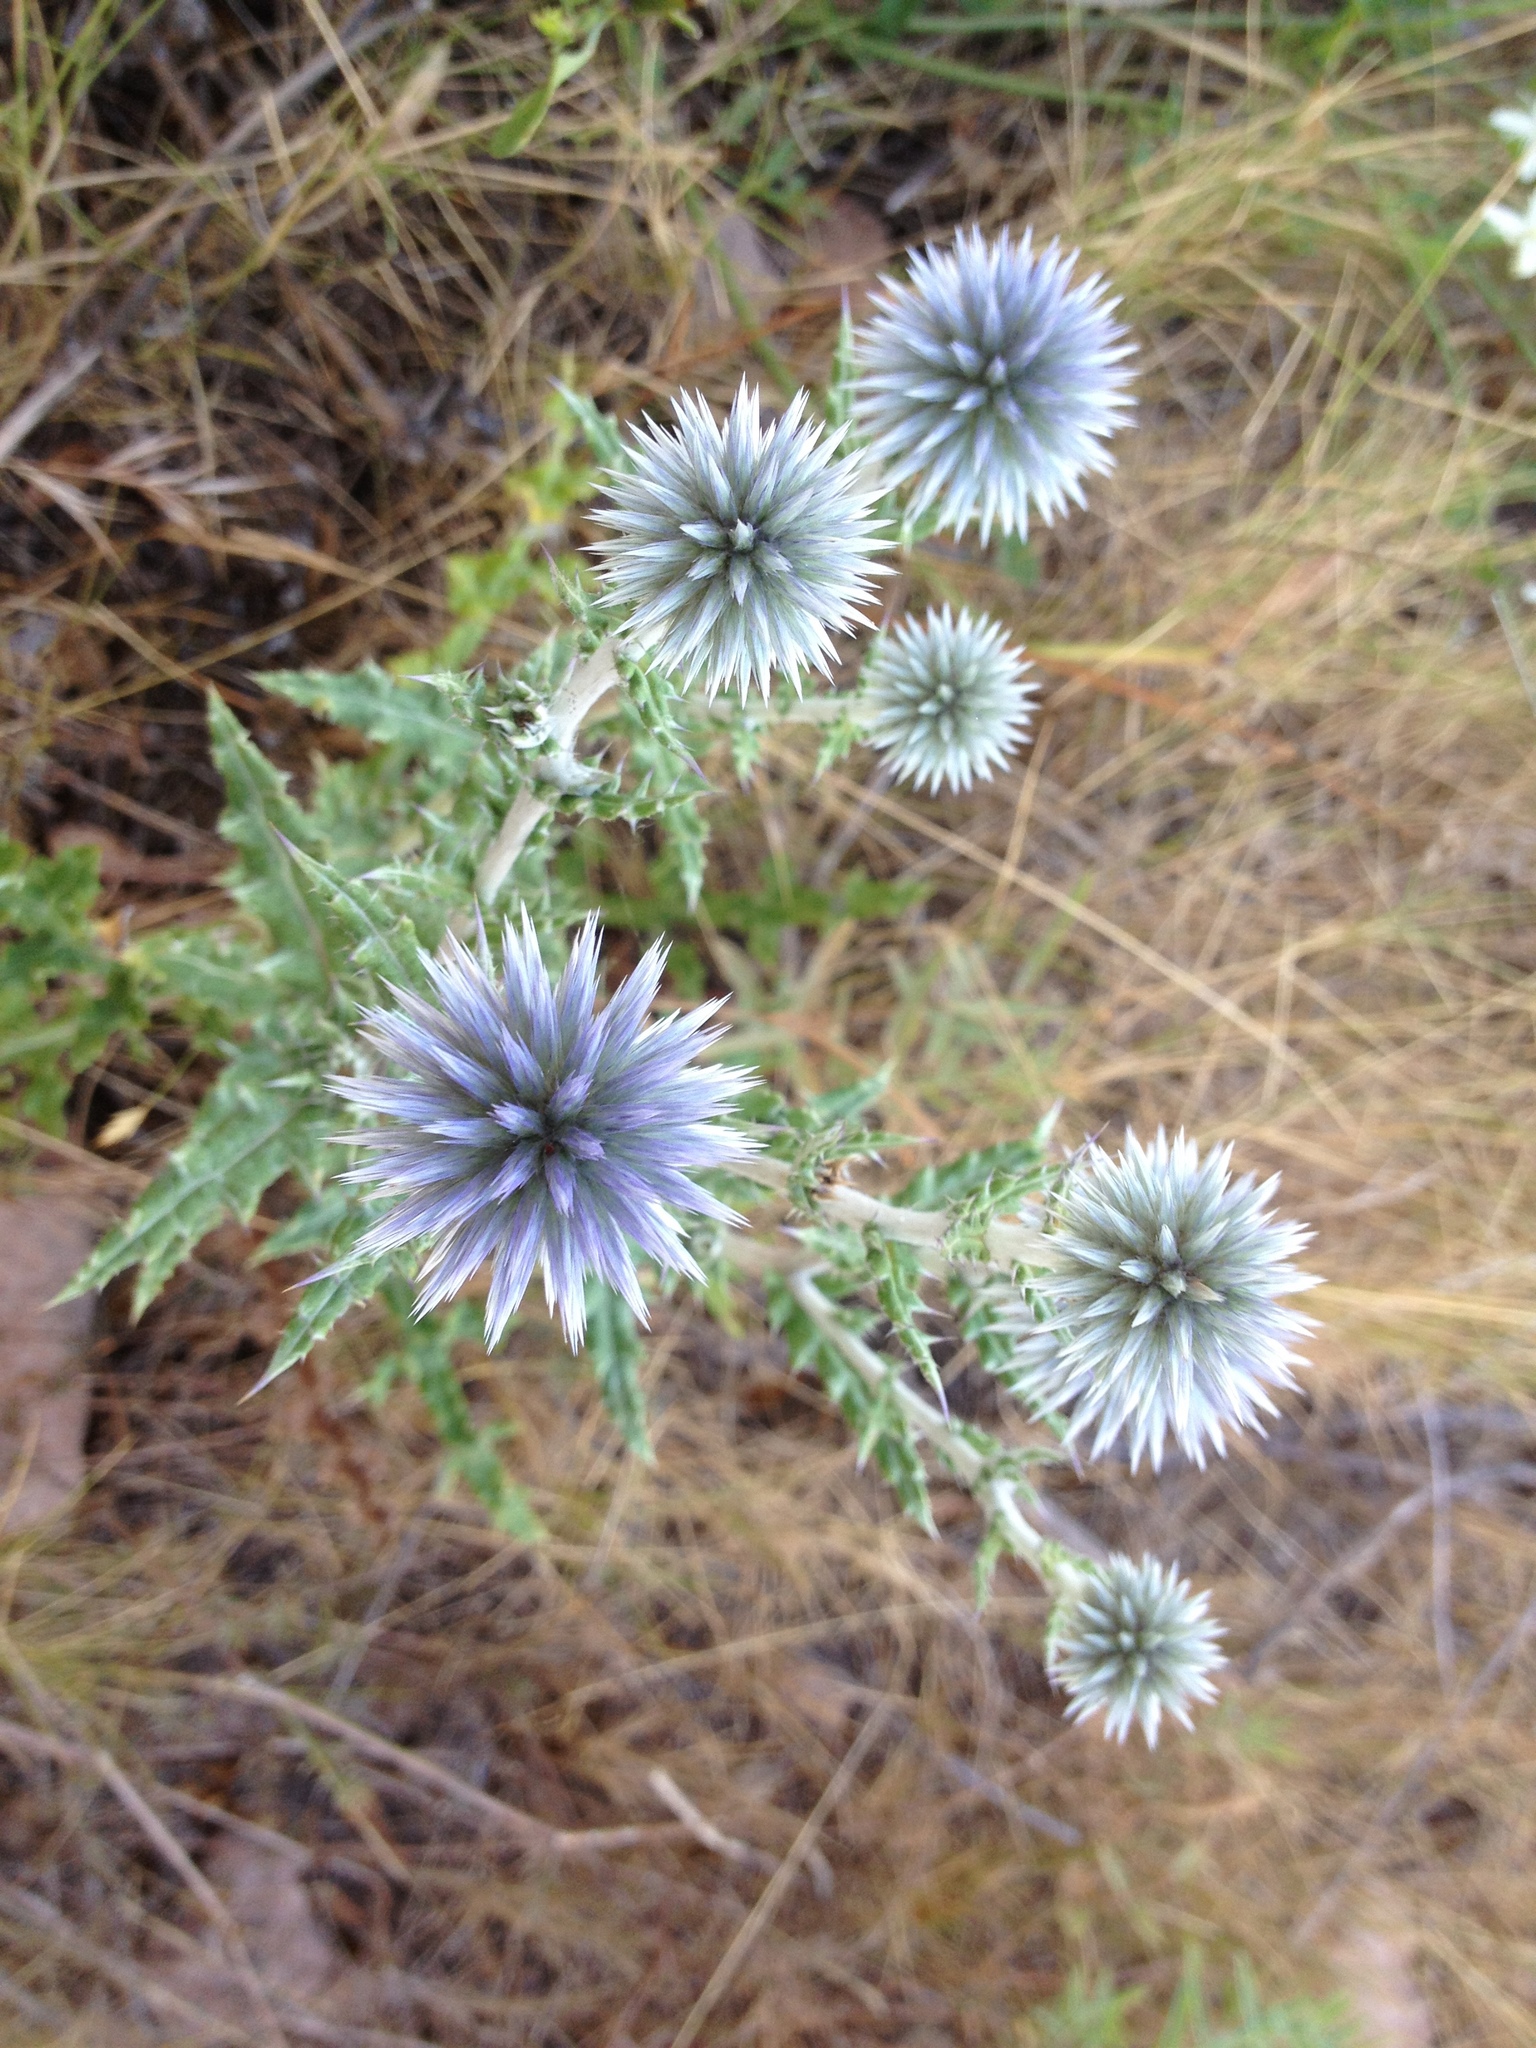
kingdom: Plantae
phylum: Tracheophyta
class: Magnoliopsida
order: Asterales
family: Asteraceae
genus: Echinops
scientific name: Echinops sphaerocephalus
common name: Glandular globe-thistle
